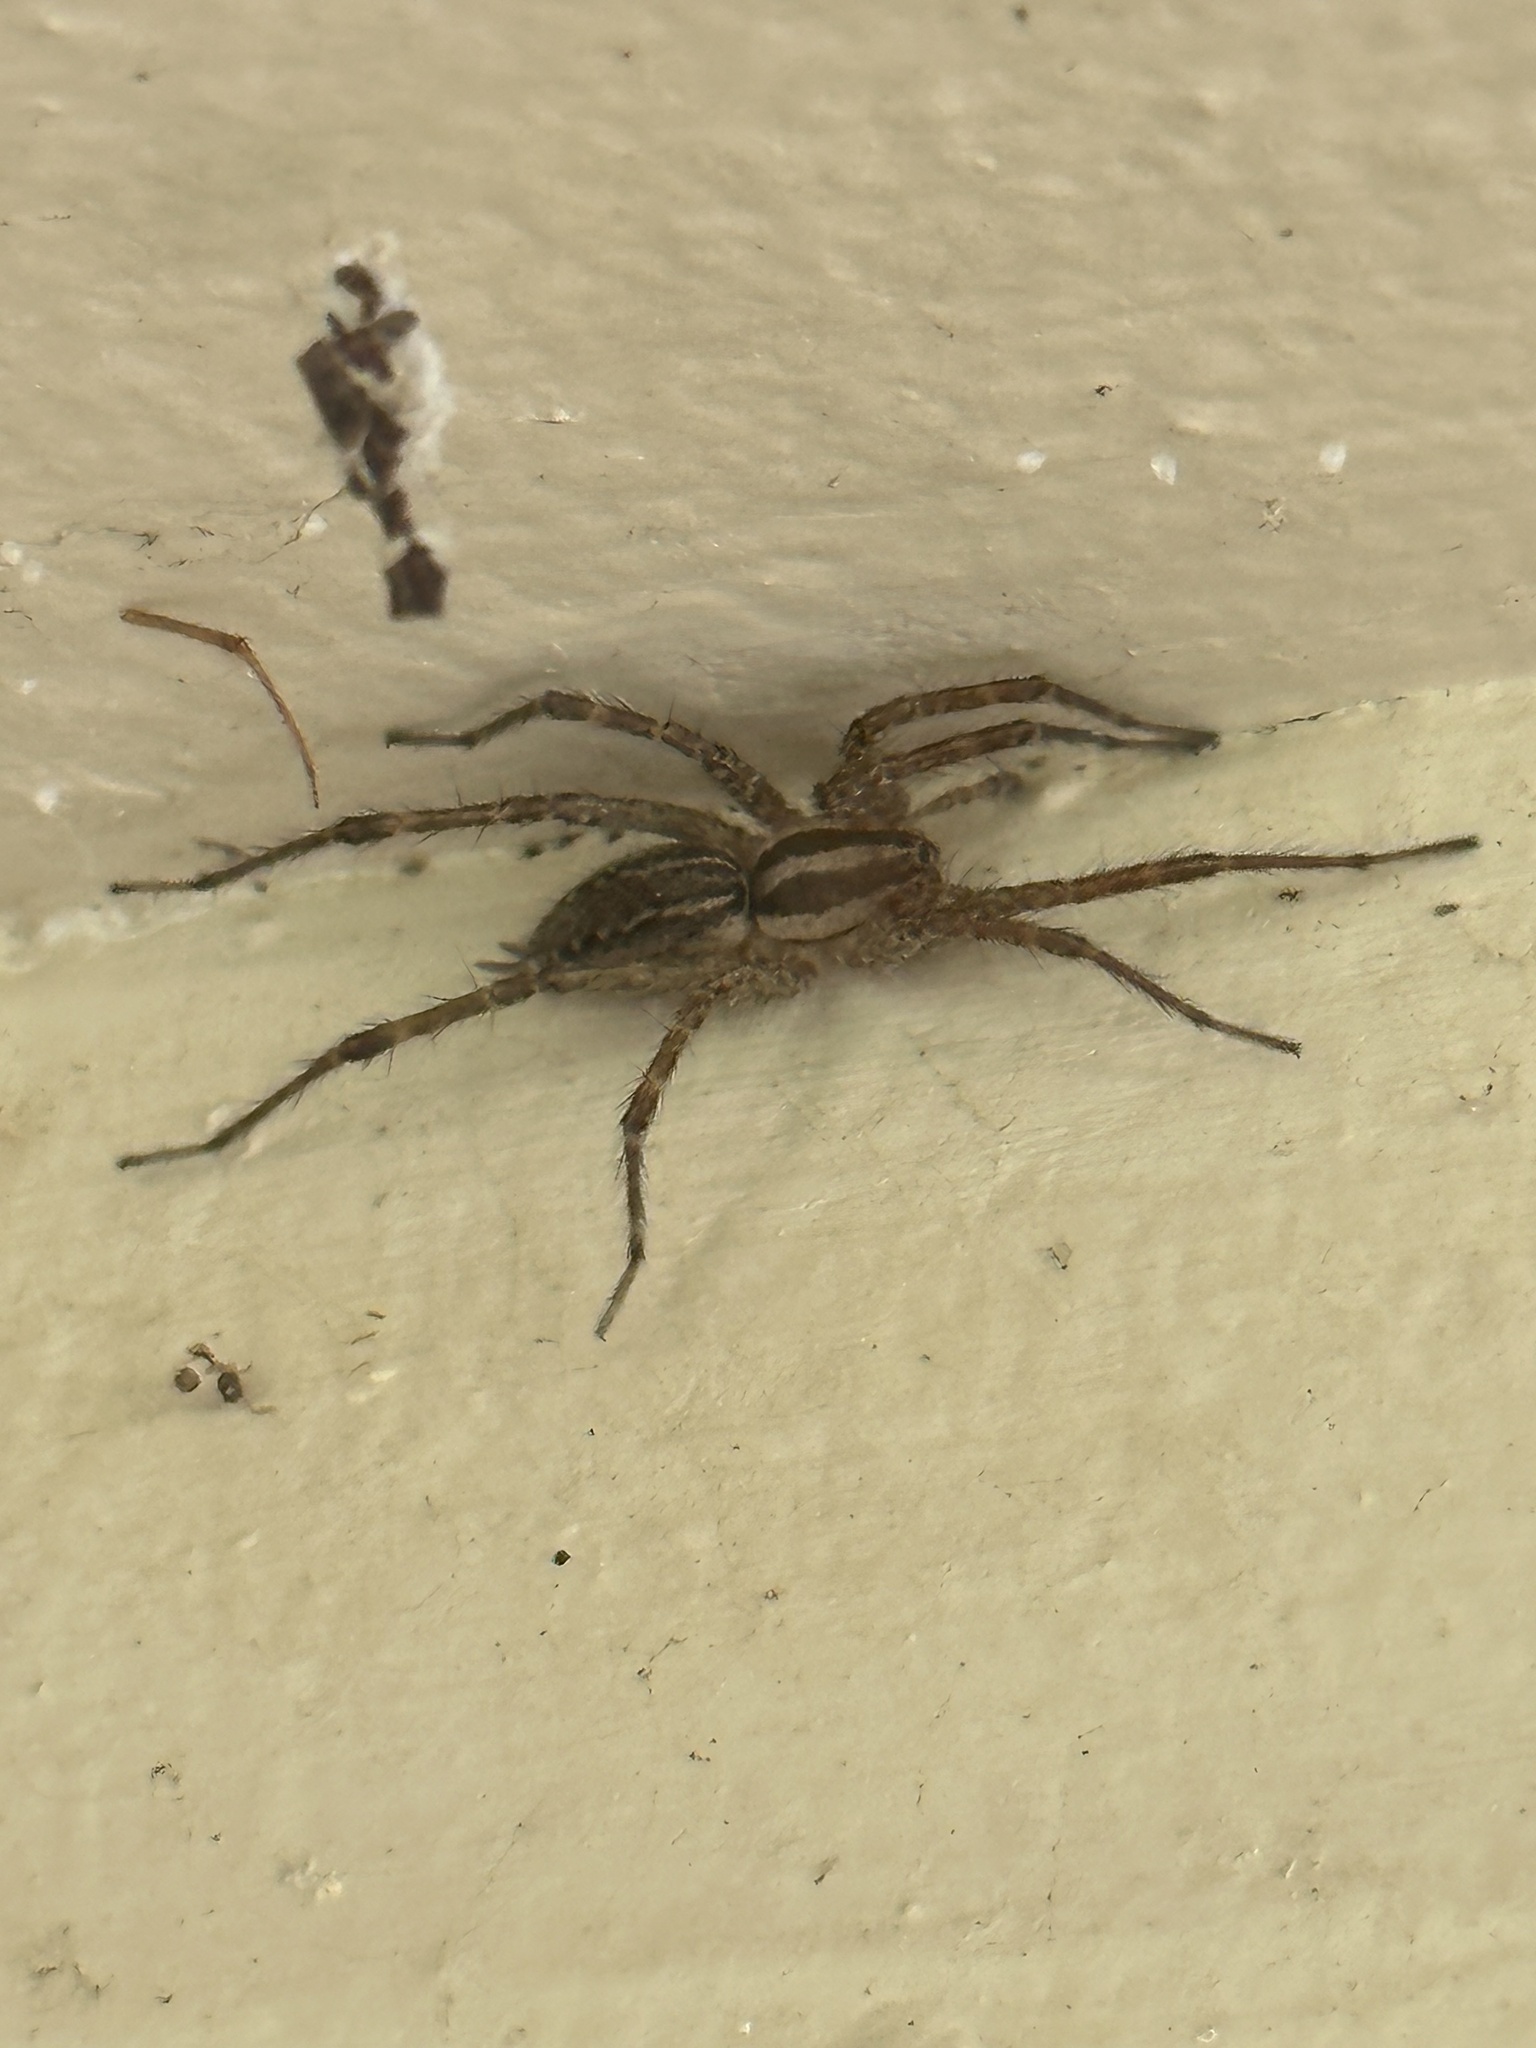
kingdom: Animalia
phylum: Arthropoda
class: Arachnida
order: Araneae
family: Agelenidae
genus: Agelenopsis
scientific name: Agelenopsis
